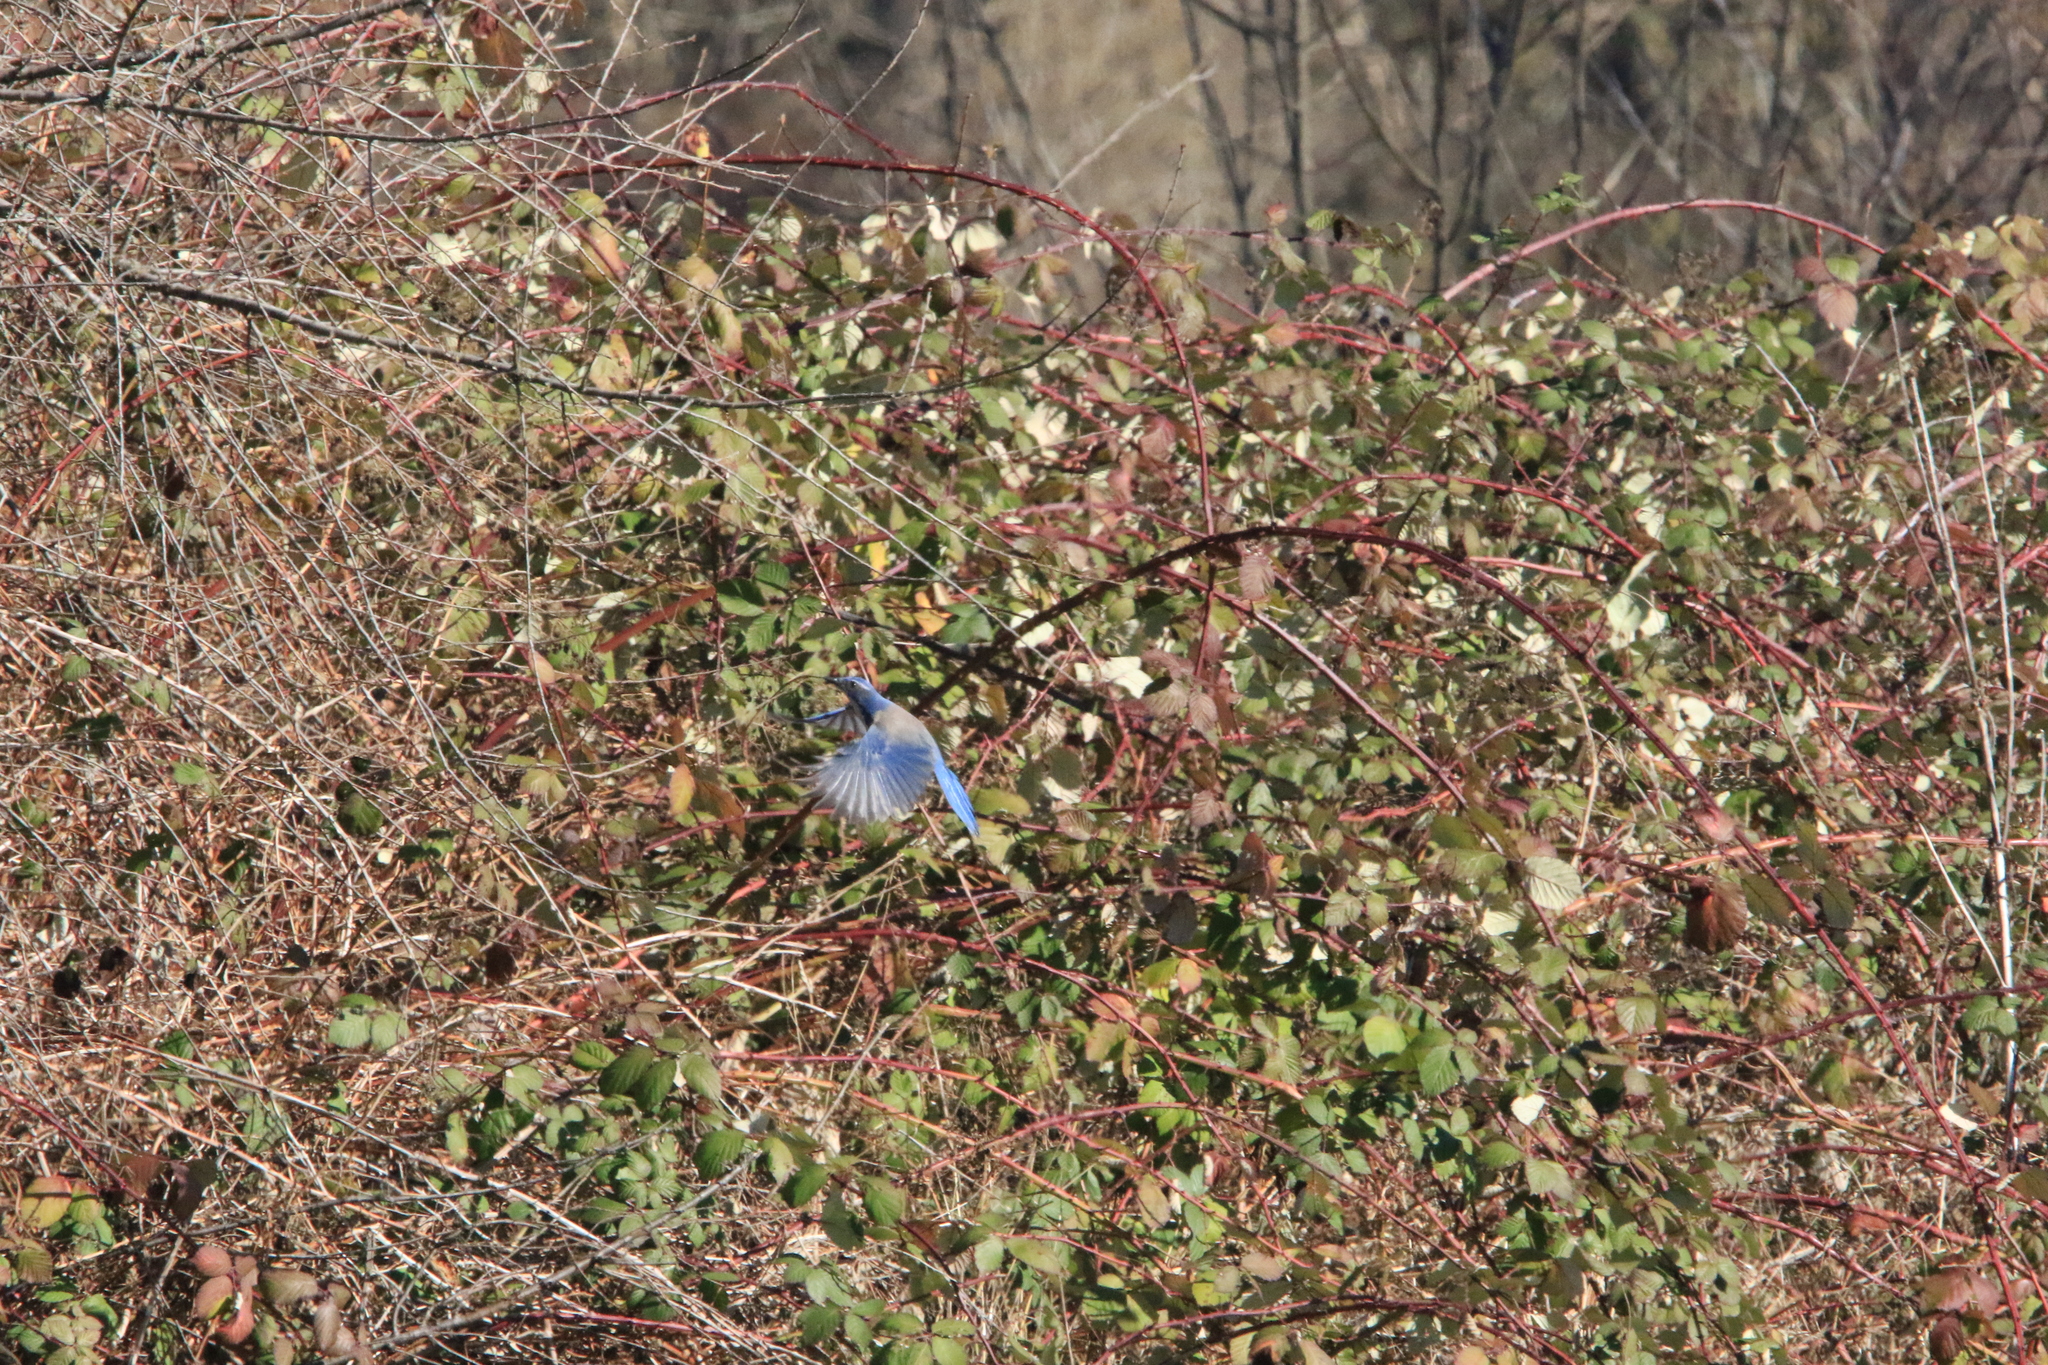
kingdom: Animalia
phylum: Chordata
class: Aves
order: Passeriformes
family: Corvidae
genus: Aphelocoma
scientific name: Aphelocoma californica
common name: California scrub-jay
